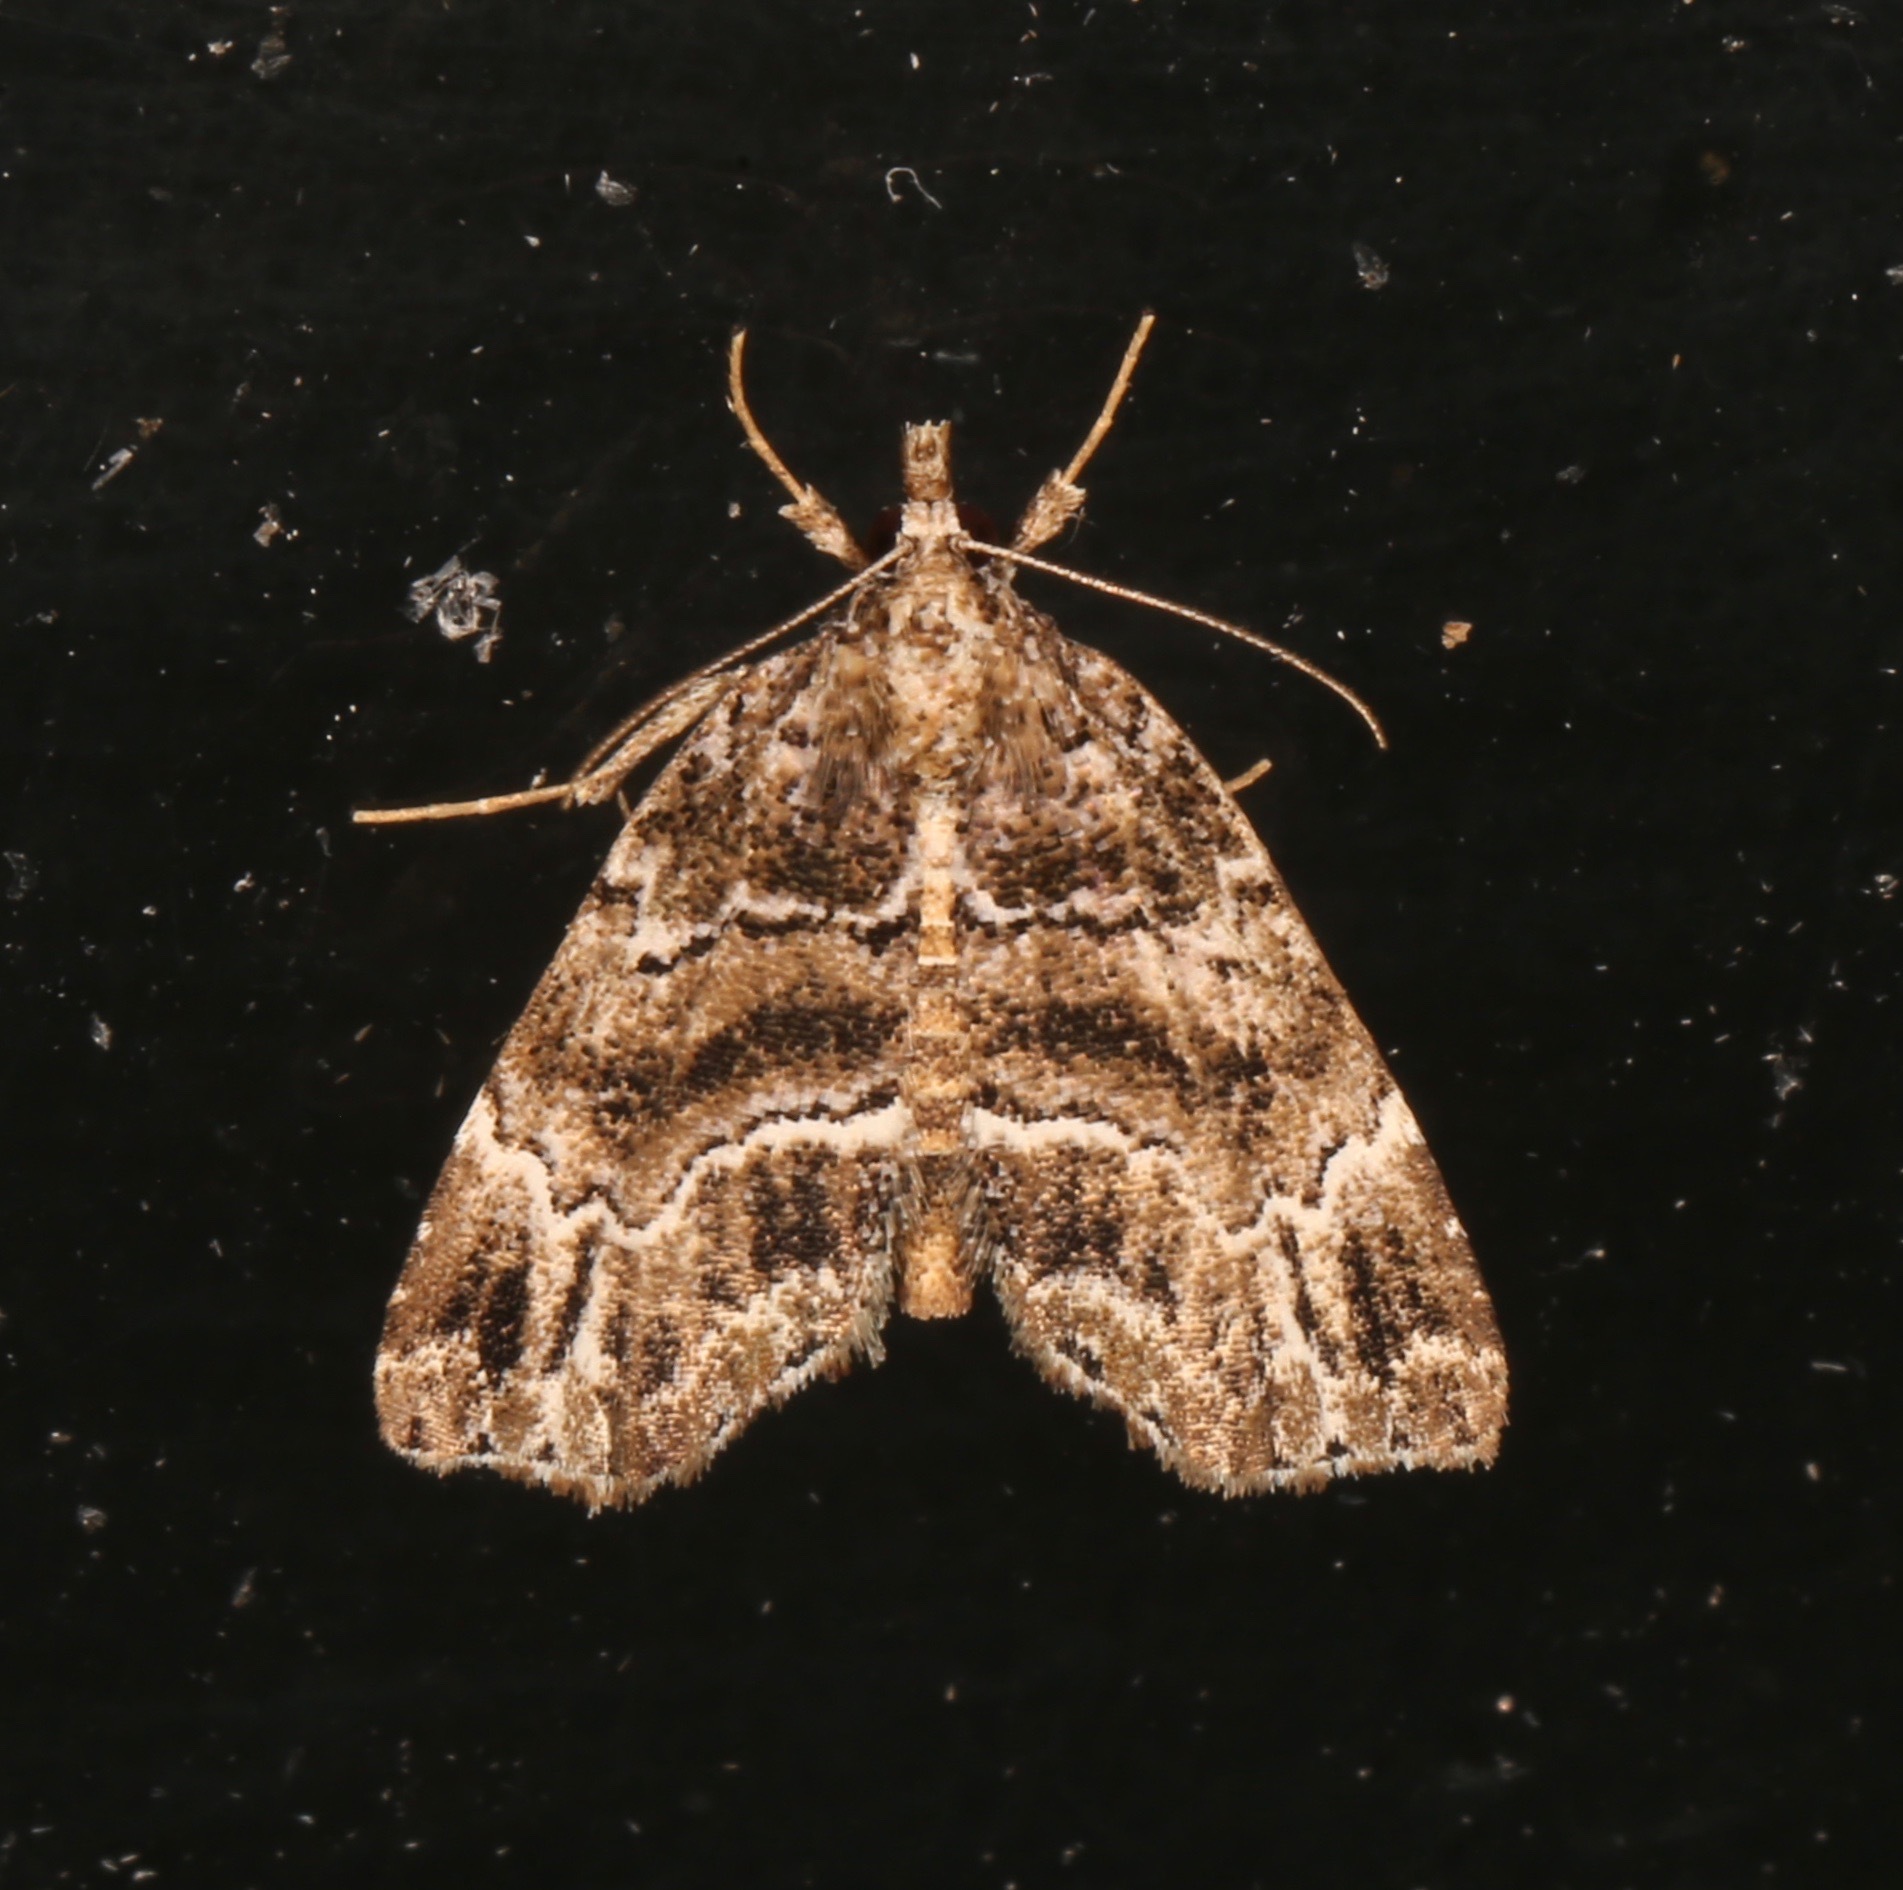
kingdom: Animalia
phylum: Arthropoda
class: Insecta
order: Lepidoptera
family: Erebidae
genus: Cutina
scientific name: Cutina arcuata
